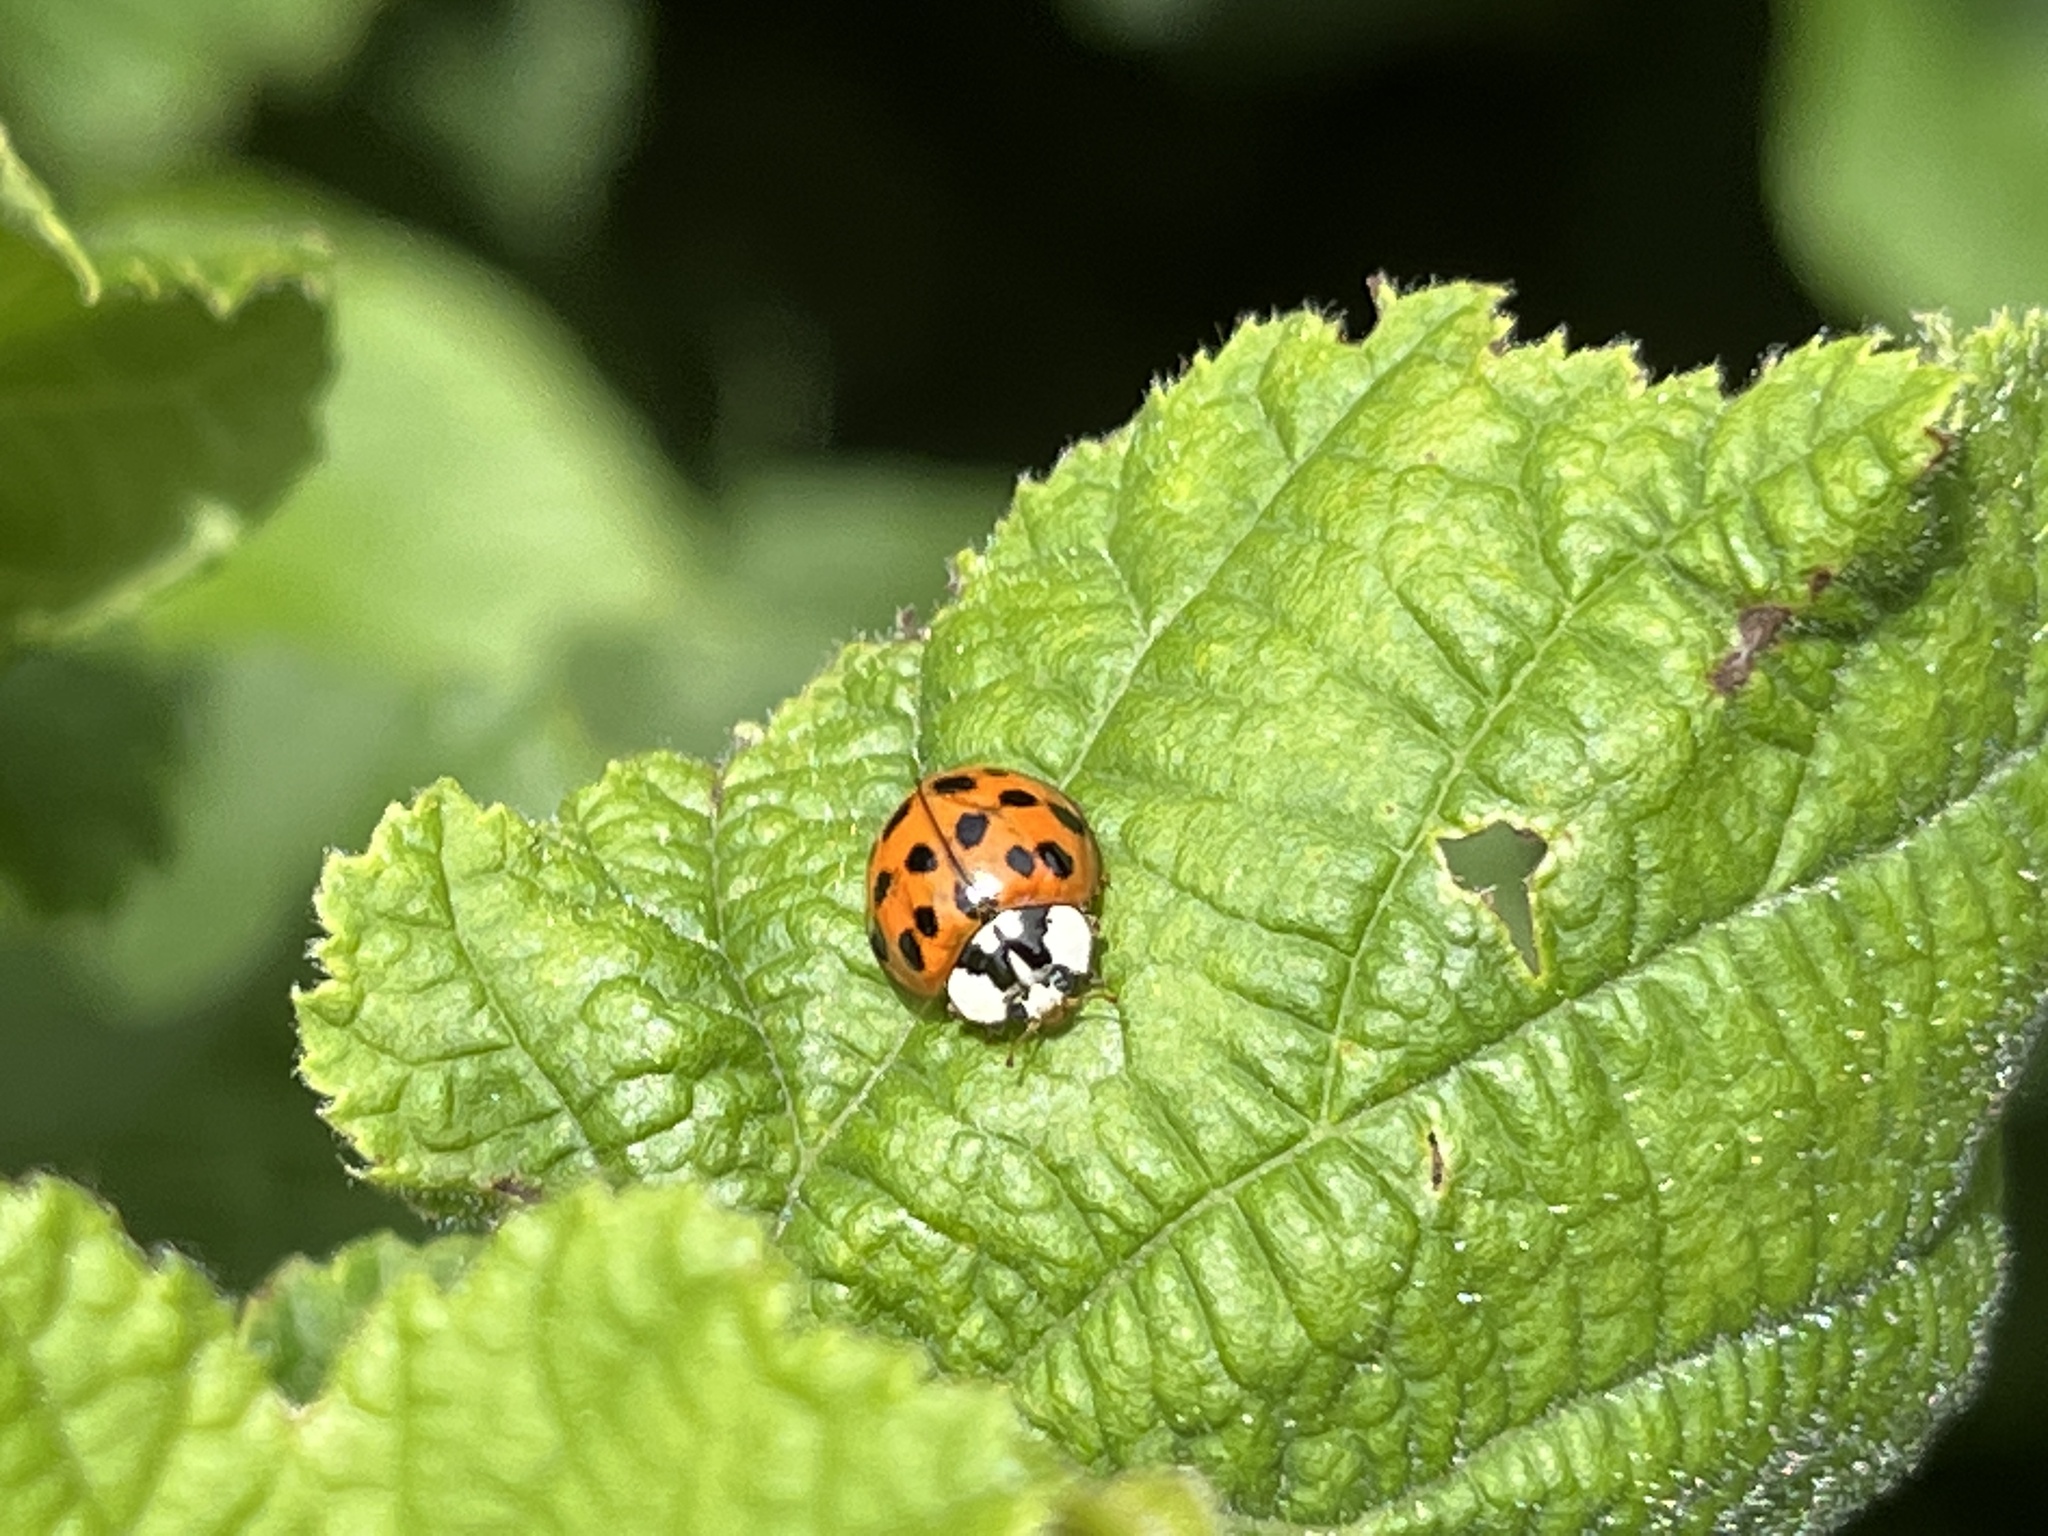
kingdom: Animalia
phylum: Arthropoda
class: Insecta
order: Coleoptera
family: Coccinellidae
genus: Harmonia
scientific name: Harmonia axyridis
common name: Harlequin ladybird
